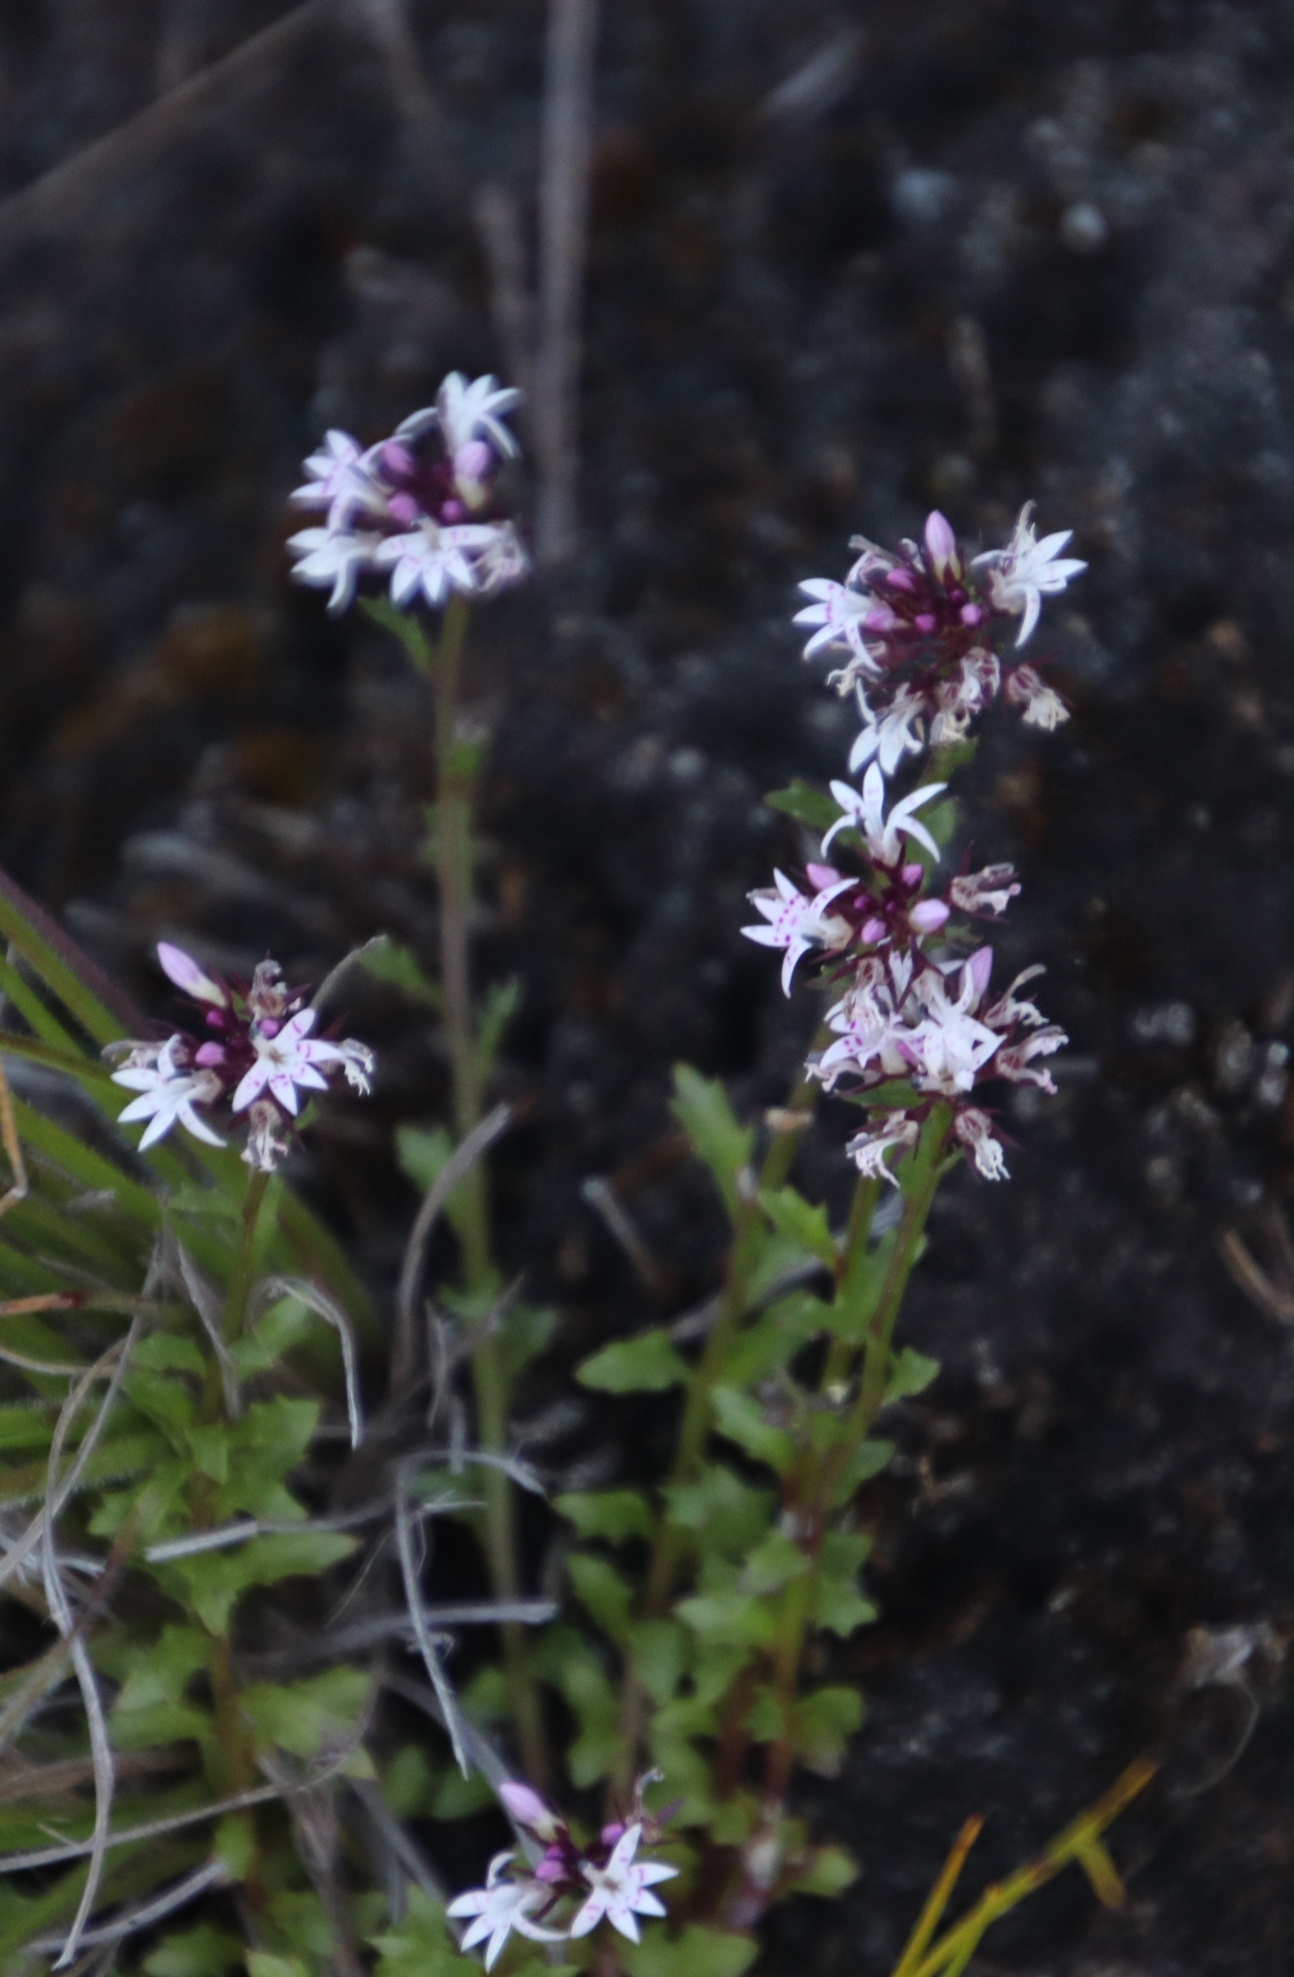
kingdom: Plantae
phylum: Tracheophyta
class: Magnoliopsida
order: Asterales
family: Campanulaceae
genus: Lobelia
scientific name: Lobelia jasionoides
